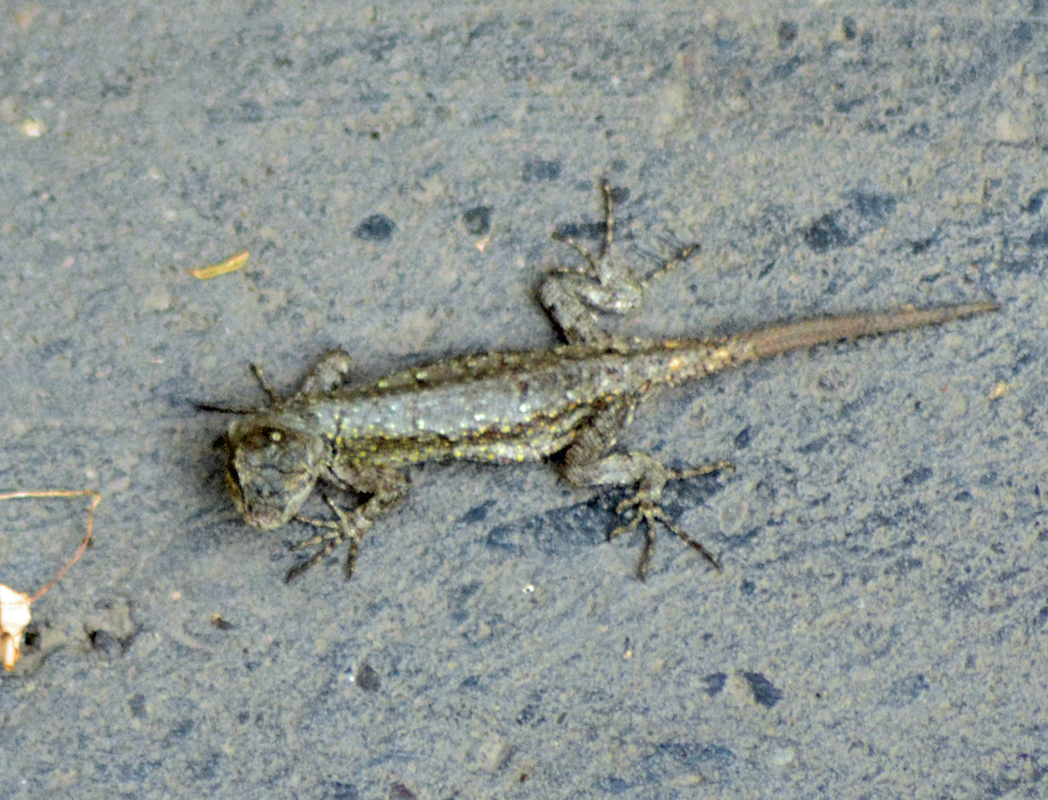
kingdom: Animalia
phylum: Chordata
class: Squamata
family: Phrynosomatidae
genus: Sceloporus
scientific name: Sceloporus grammicus
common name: Mesquite lizard
